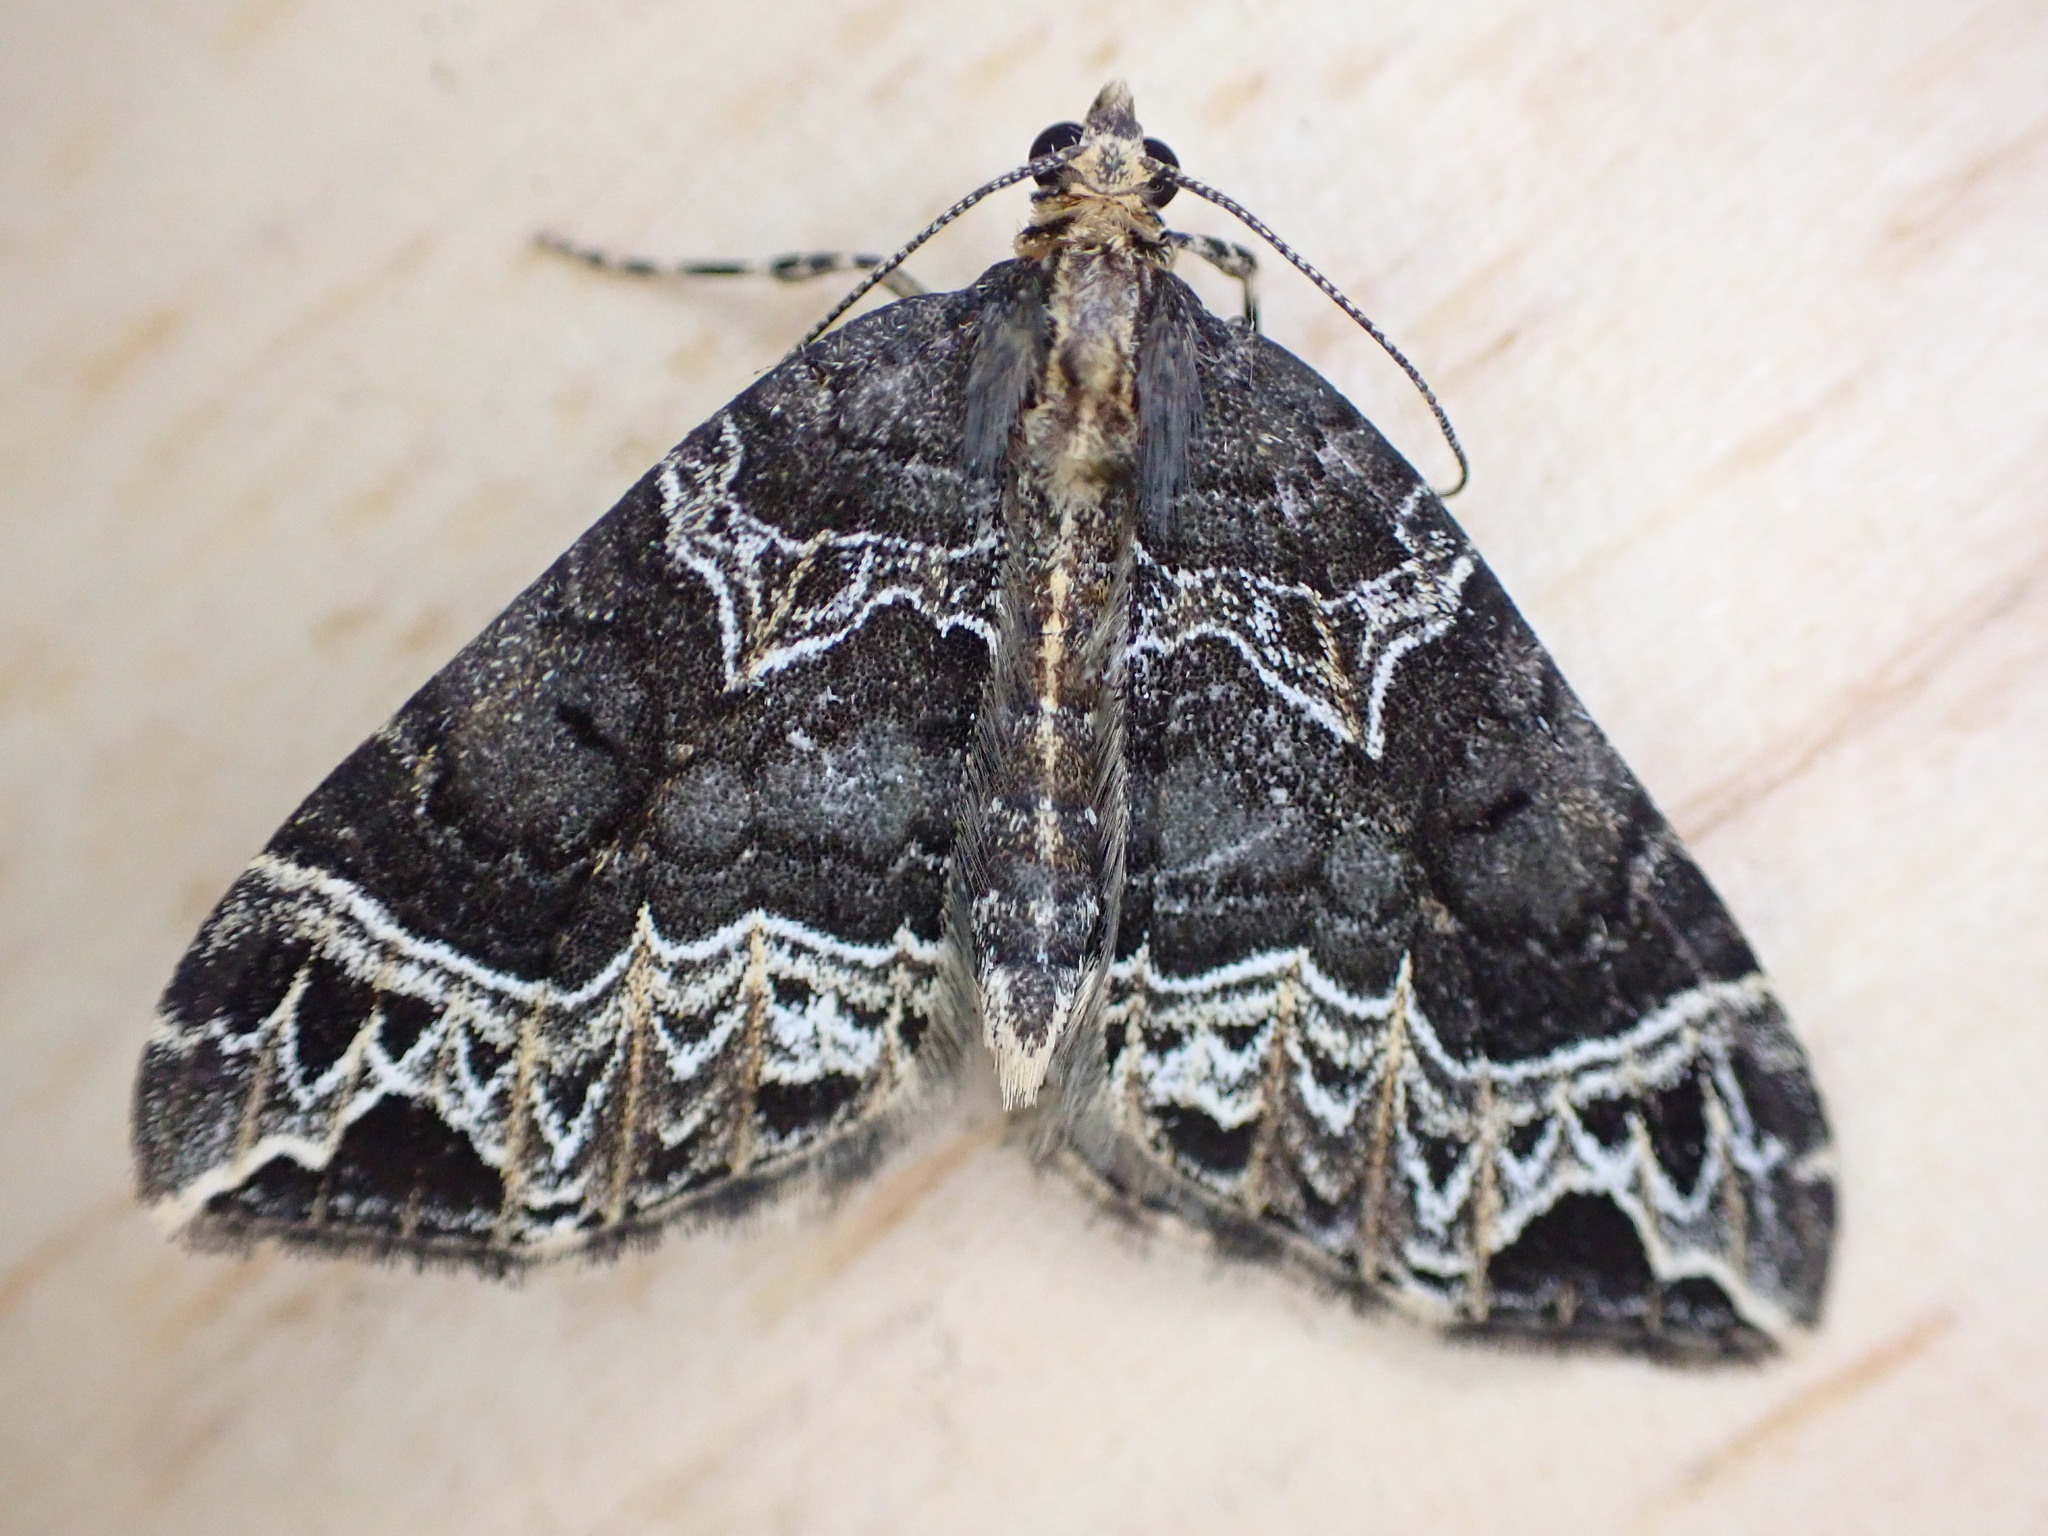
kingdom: Animalia
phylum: Arthropoda
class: Insecta
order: Lepidoptera
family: Geometridae
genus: Ecliptopera
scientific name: Ecliptopera silaceata
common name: Small phoenix
